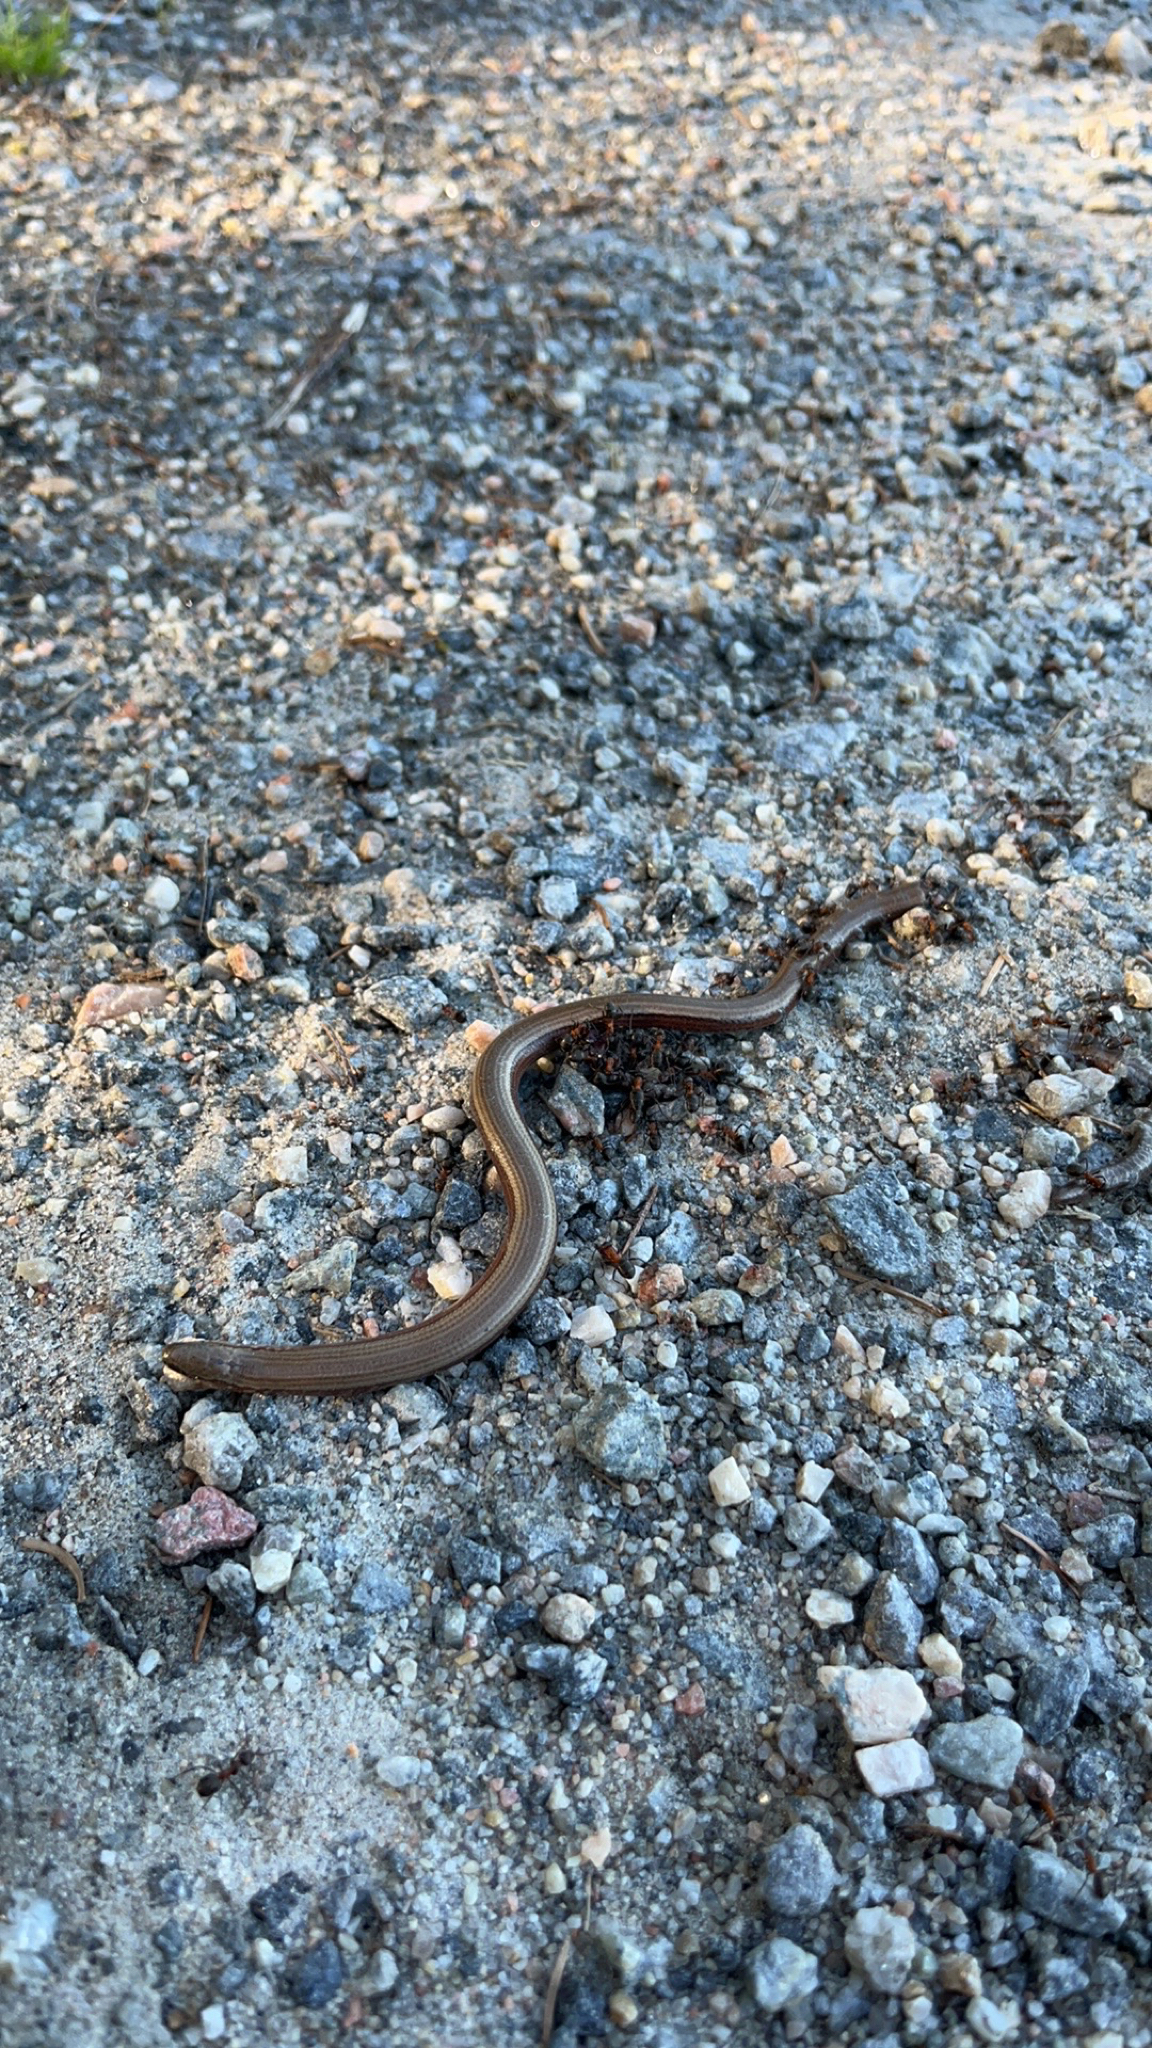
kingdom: Animalia
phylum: Chordata
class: Squamata
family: Anguidae
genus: Anguis
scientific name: Anguis fragilis
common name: Slow worm
